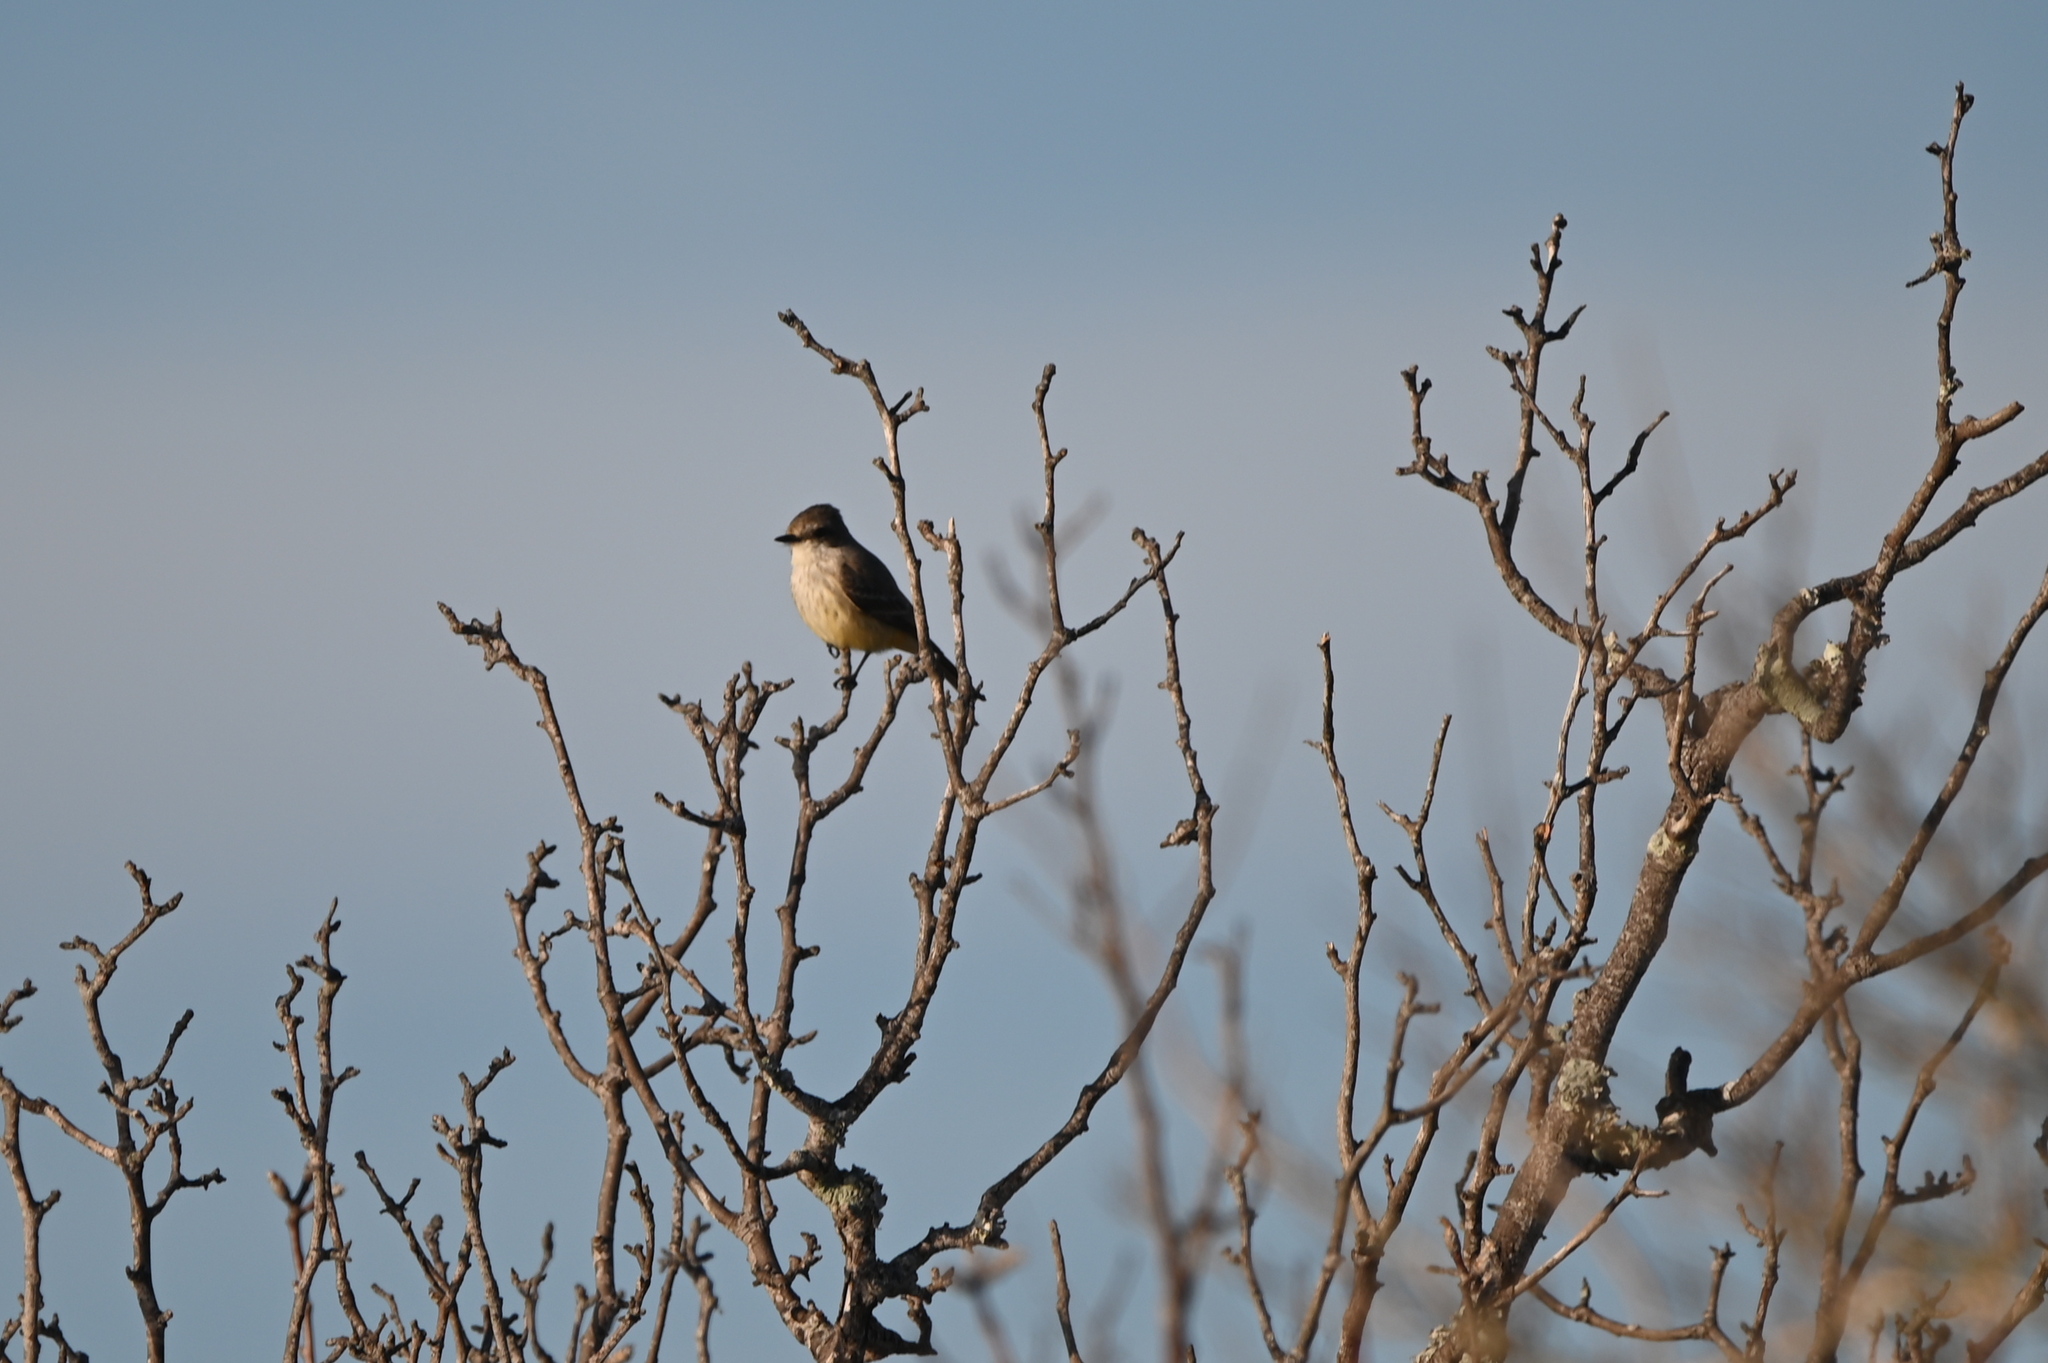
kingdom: Animalia
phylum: Chordata
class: Aves
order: Passeriformes
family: Tyrannidae
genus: Pyrocephalus
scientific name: Pyrocephalus rubinus
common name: Vermilion flycatcher
